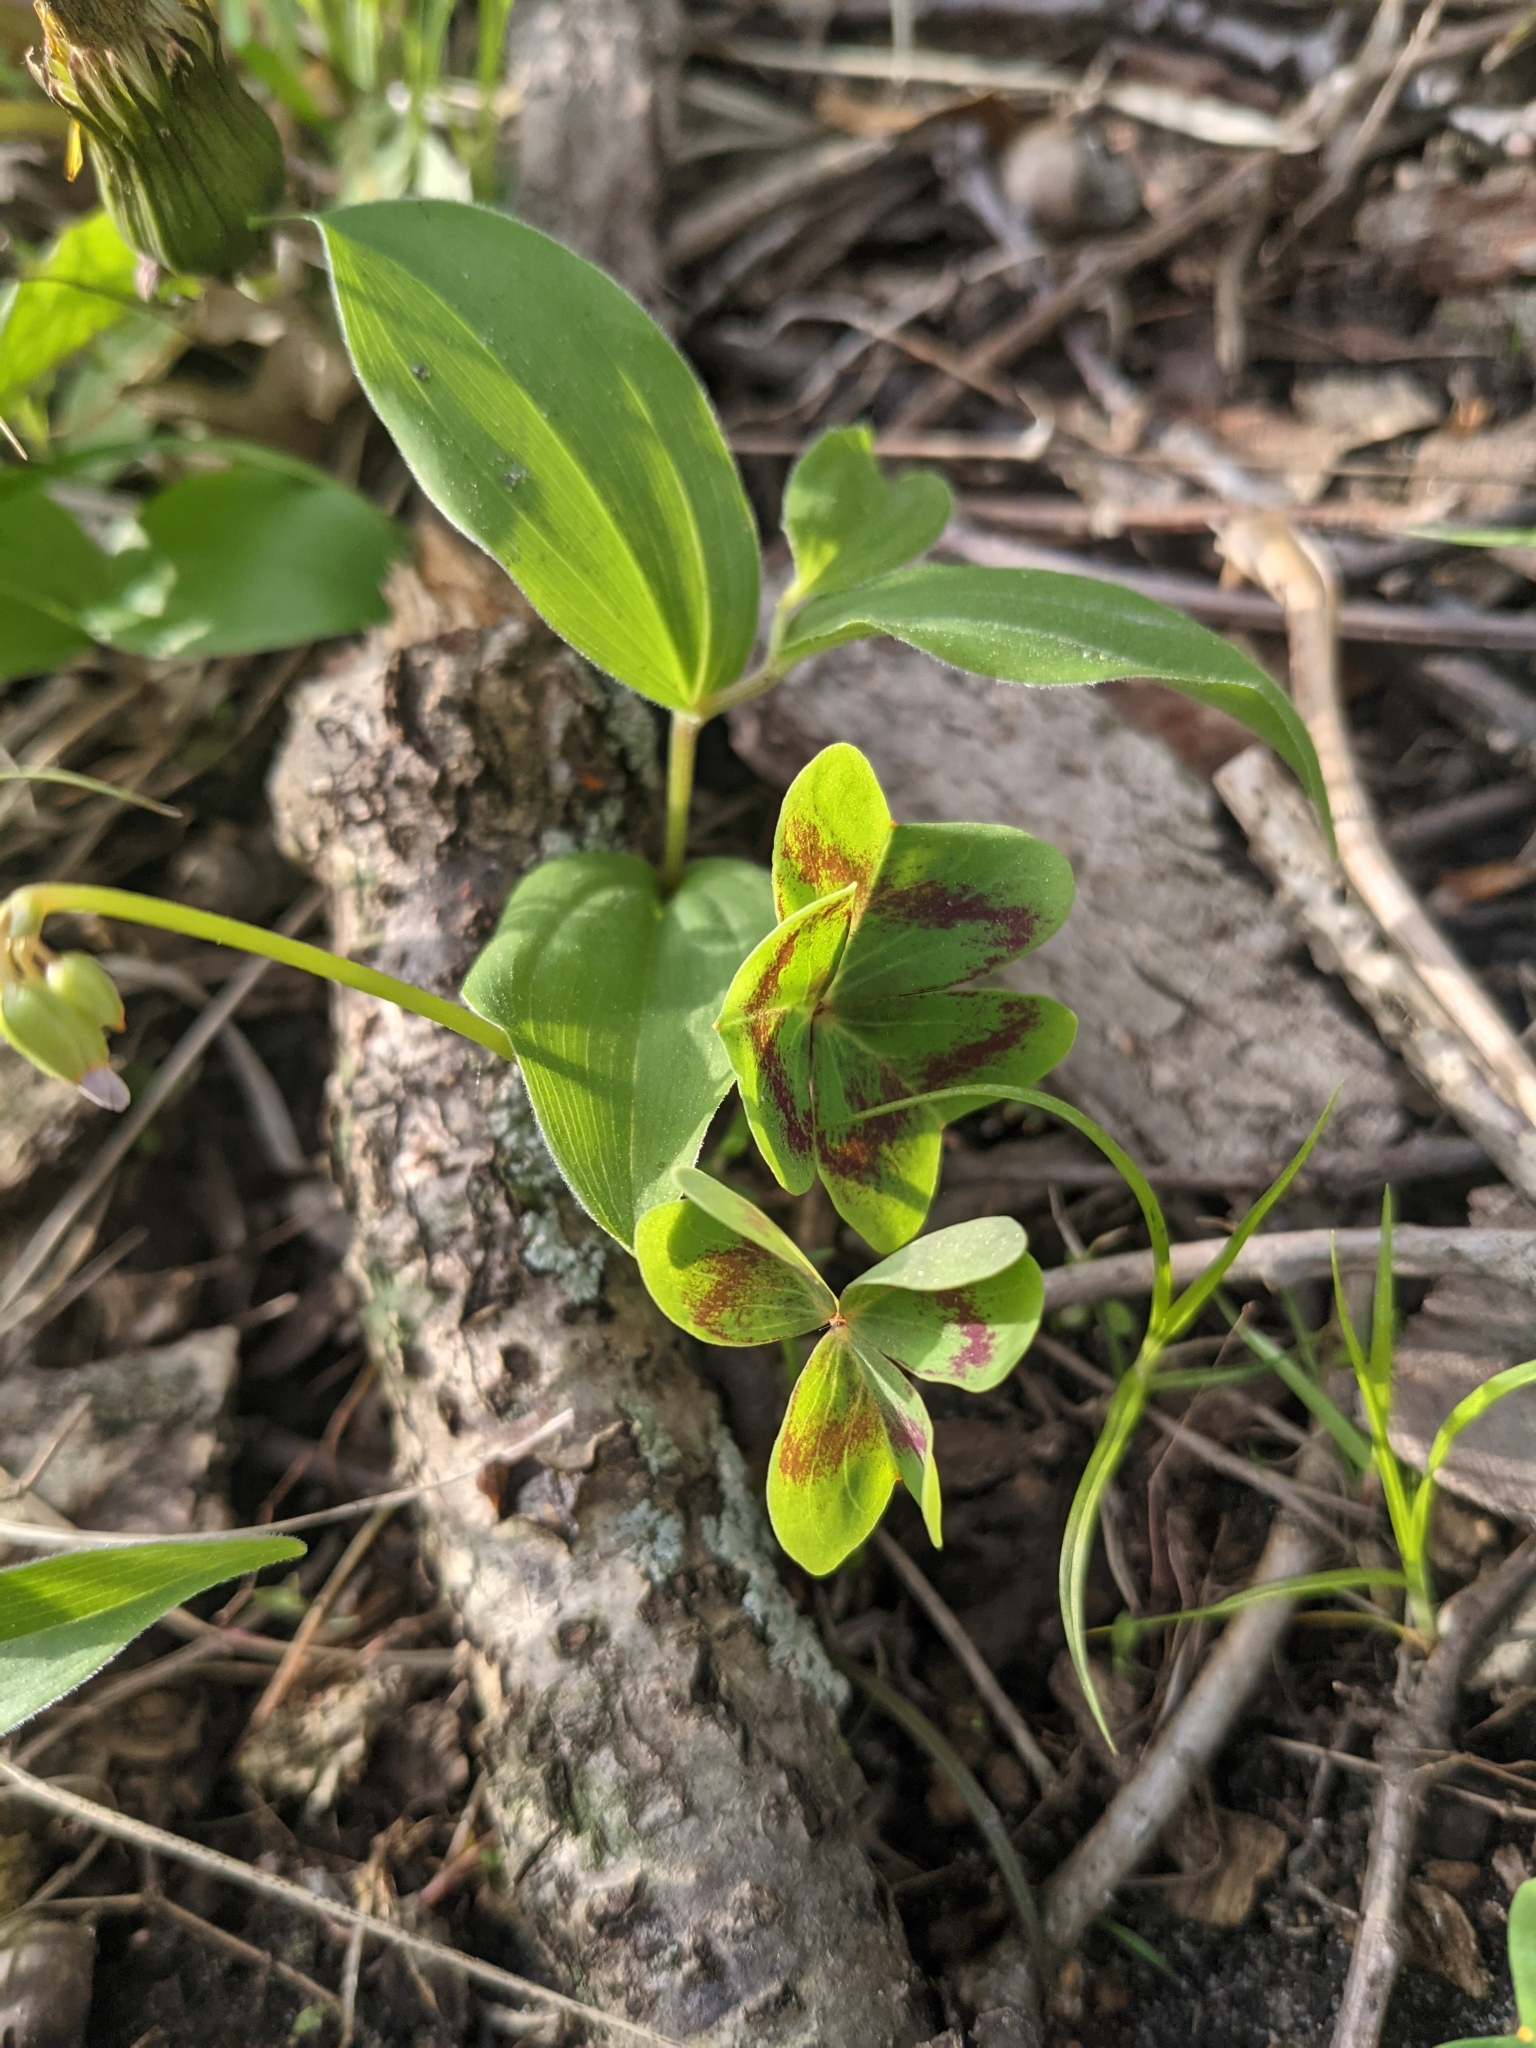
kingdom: Plantae
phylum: Tracheophyta
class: Magnoliopsida
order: Oxalidales
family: Oxalidaceae
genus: Oxalis
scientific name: Oxalis violacea
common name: Violet wood-sorrel
